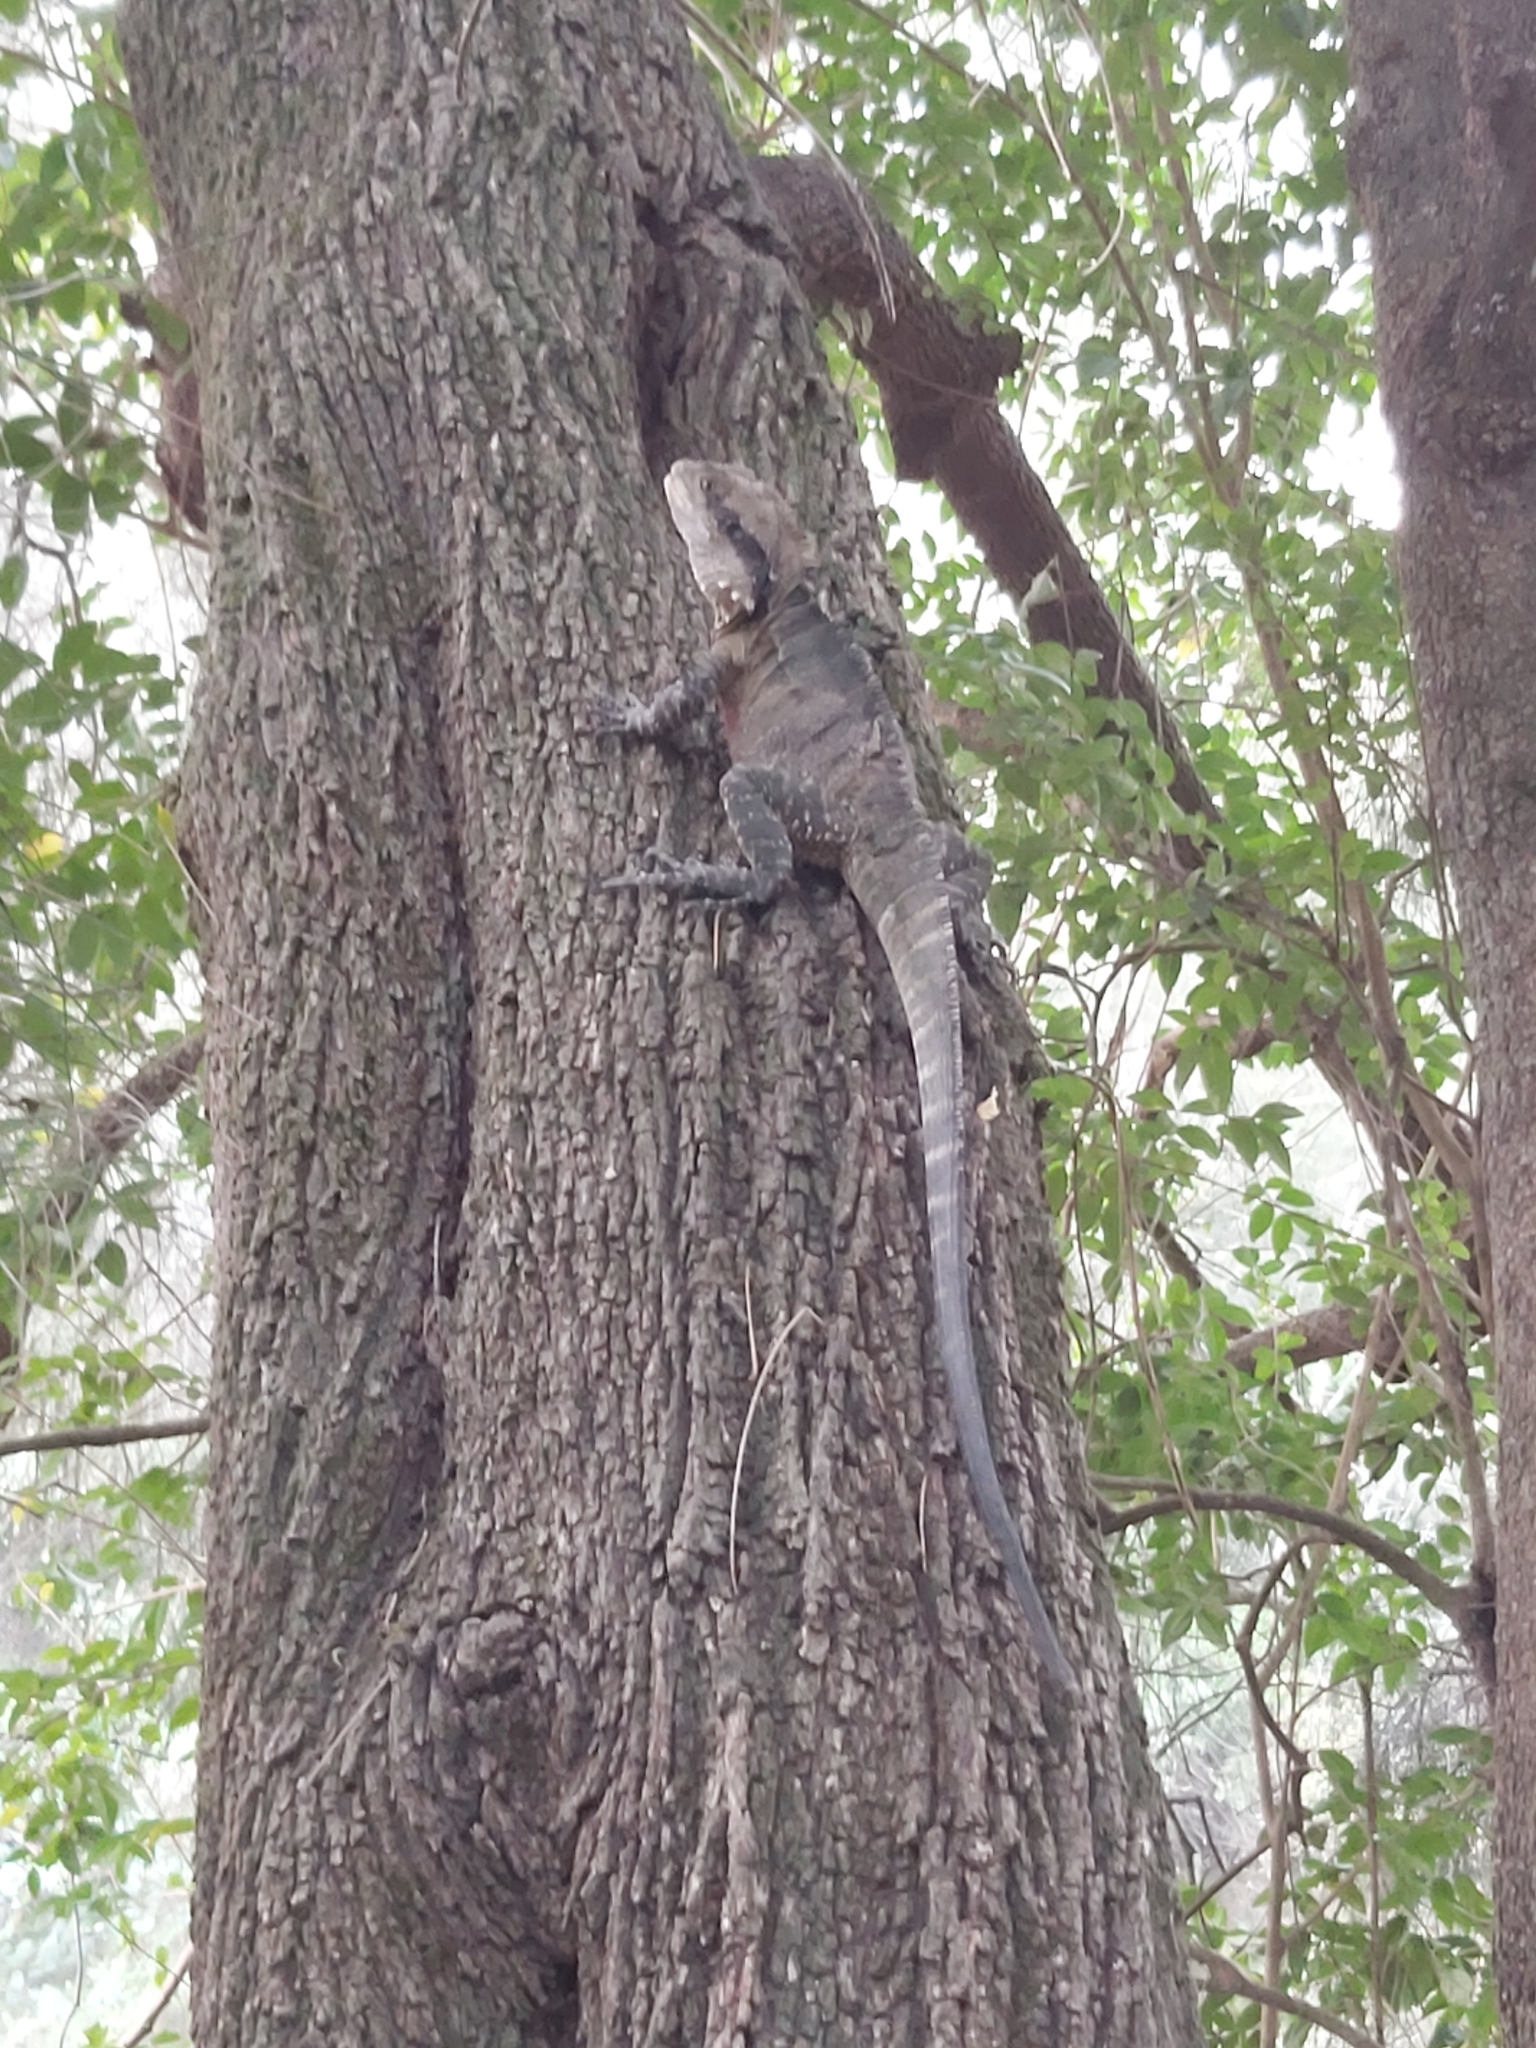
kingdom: Animalia
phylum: Chordata
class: Squamata
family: Agamidae
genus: Intellagama
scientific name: Intellagama lesueurii
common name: Eastern water dragon
